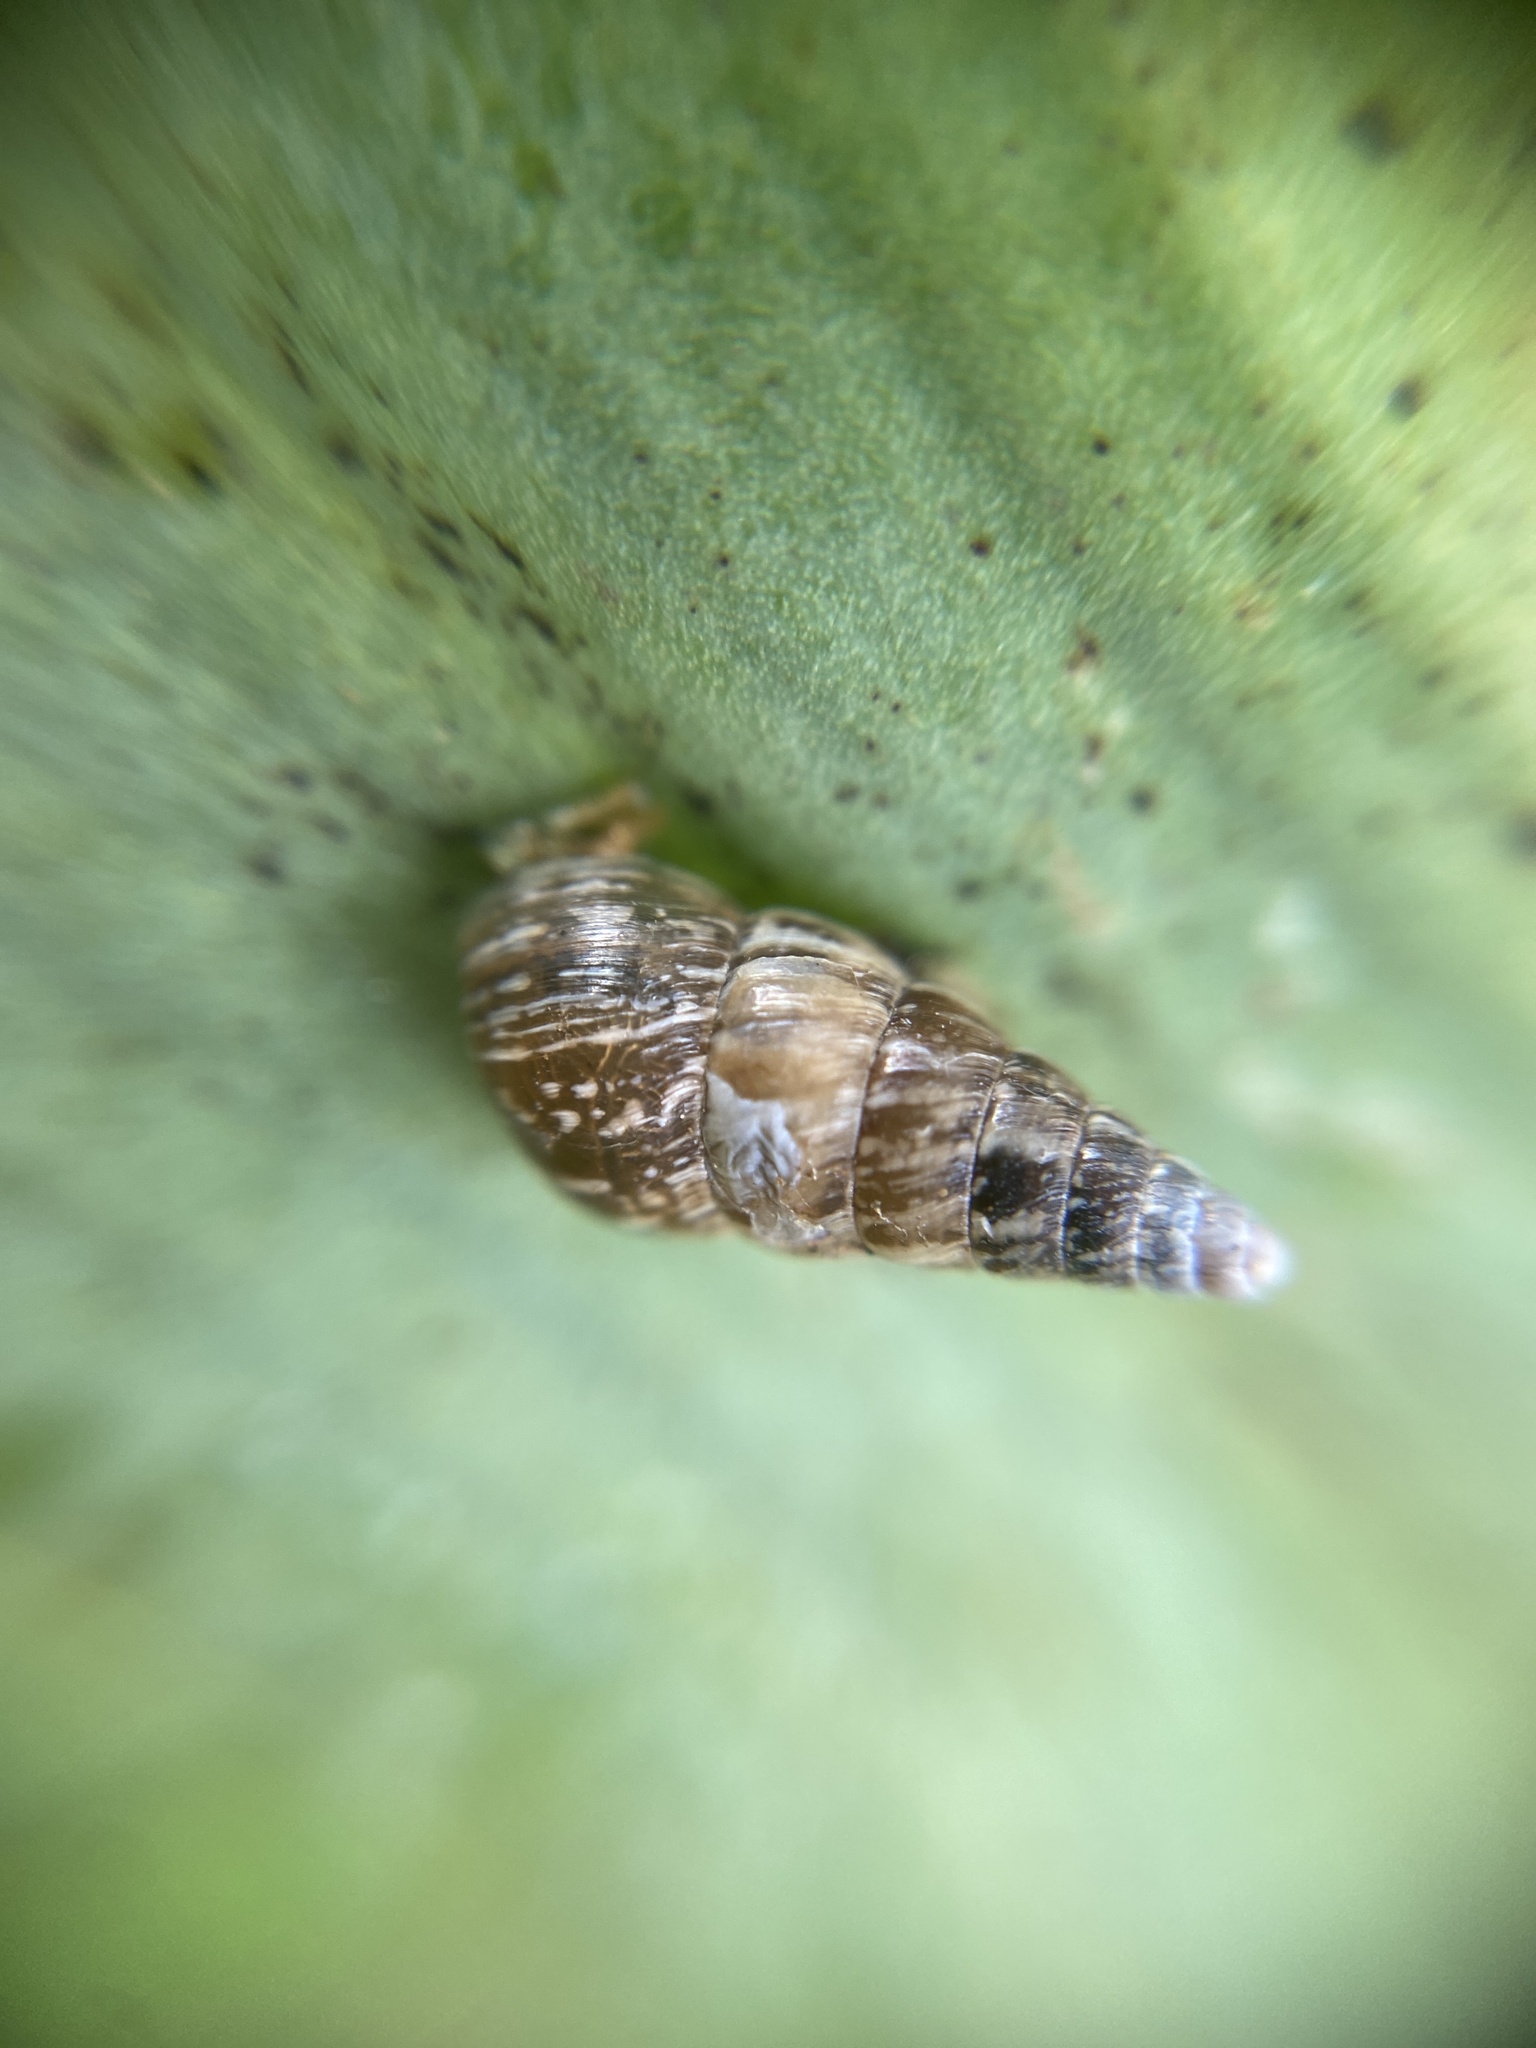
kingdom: Animalia
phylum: Mollusca
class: Gastropoda
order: Stylommatophora
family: Geomitridae
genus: Cochlicella
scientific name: Cochlicella acuta
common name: Pointed snail
